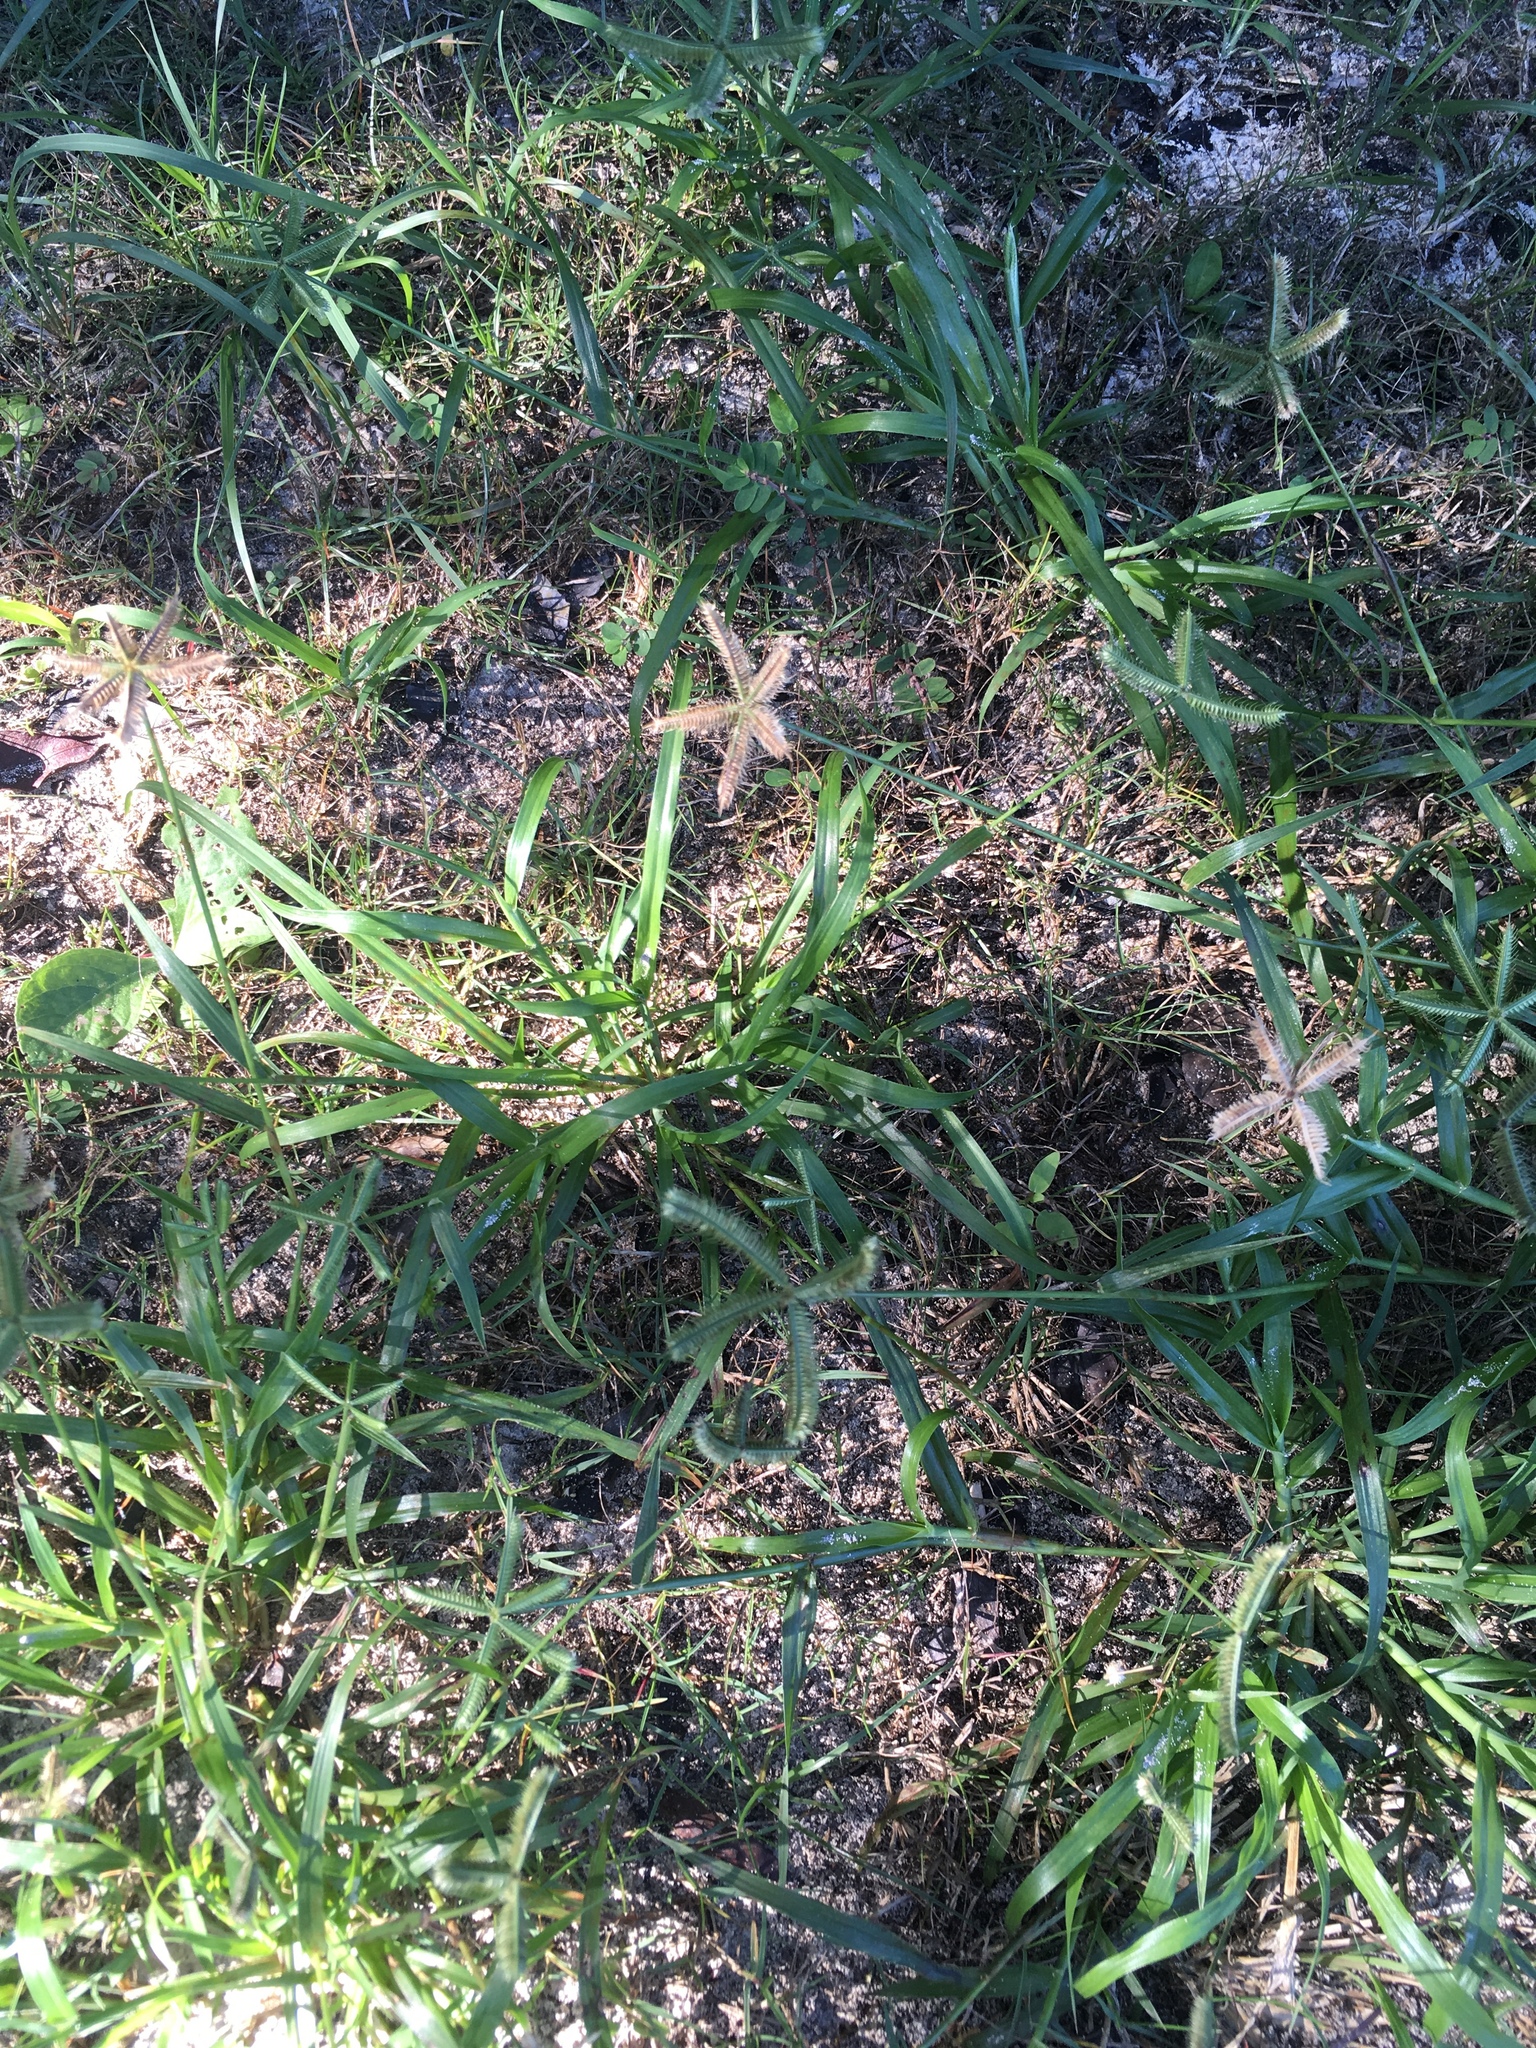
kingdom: Plantae
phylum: Tracheophyta
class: Liliopsida
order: Poales
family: Poaceae
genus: Dactyloctenium
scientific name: Dactyloctenium aegyptium
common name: Egyptian grass
